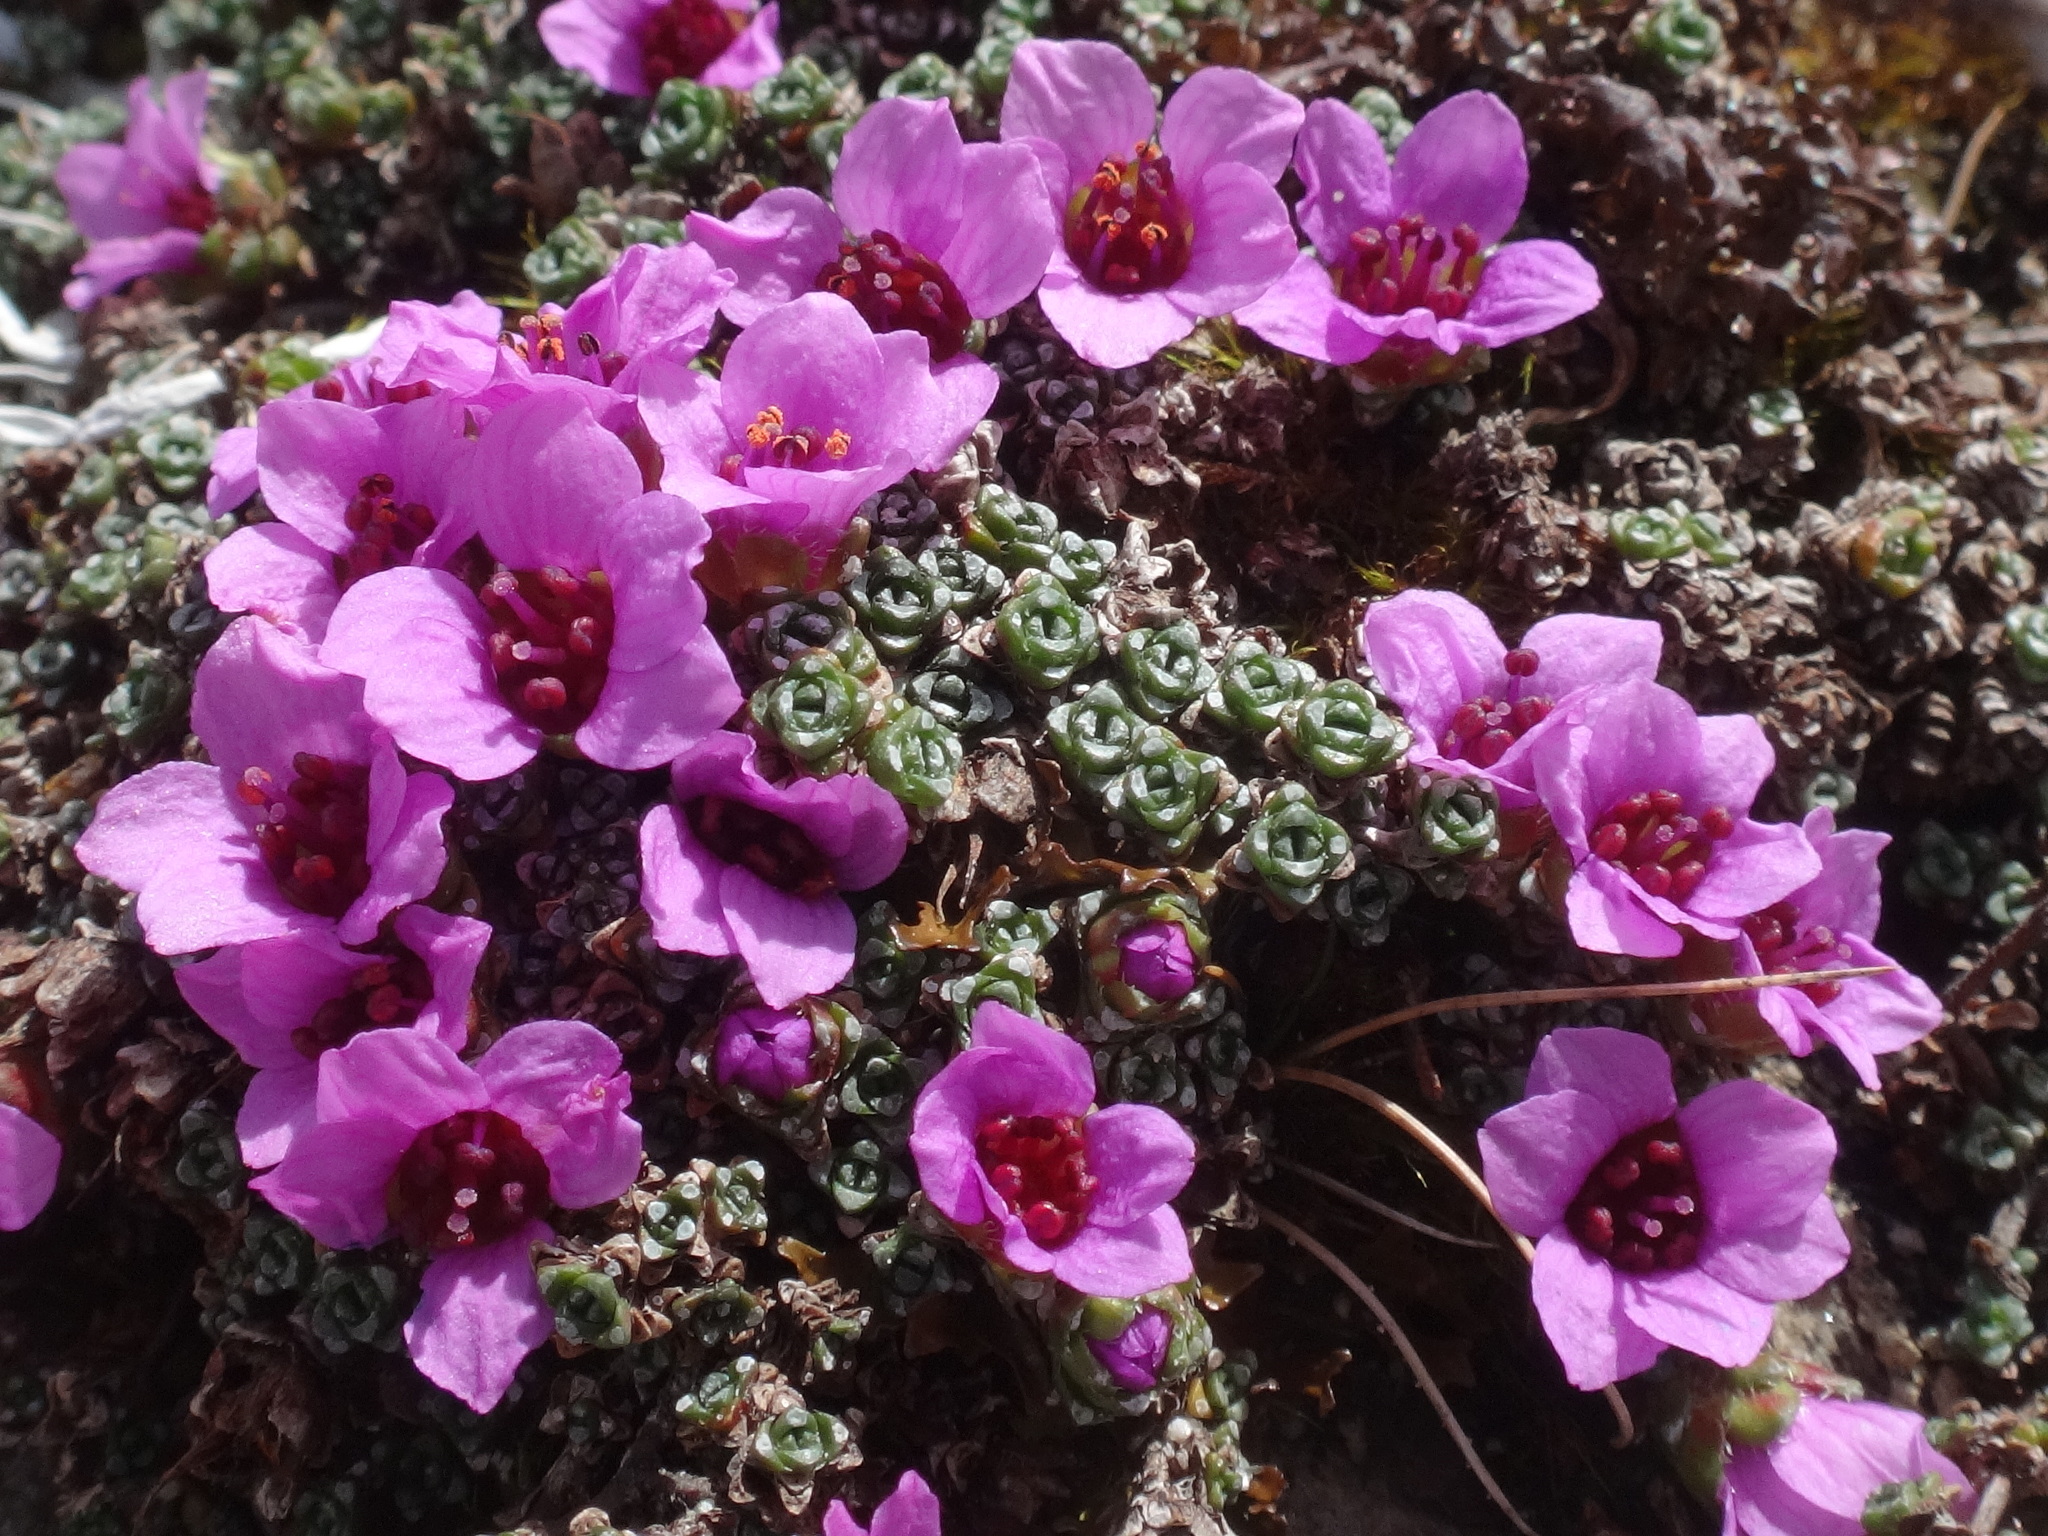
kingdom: Plantae
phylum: Tracheophyta
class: Magnoliopsida
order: Saxifragales
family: Saxifragaceae
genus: Saxifraga
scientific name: Saxifraga oppositifolia
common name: Purple saxifrage
